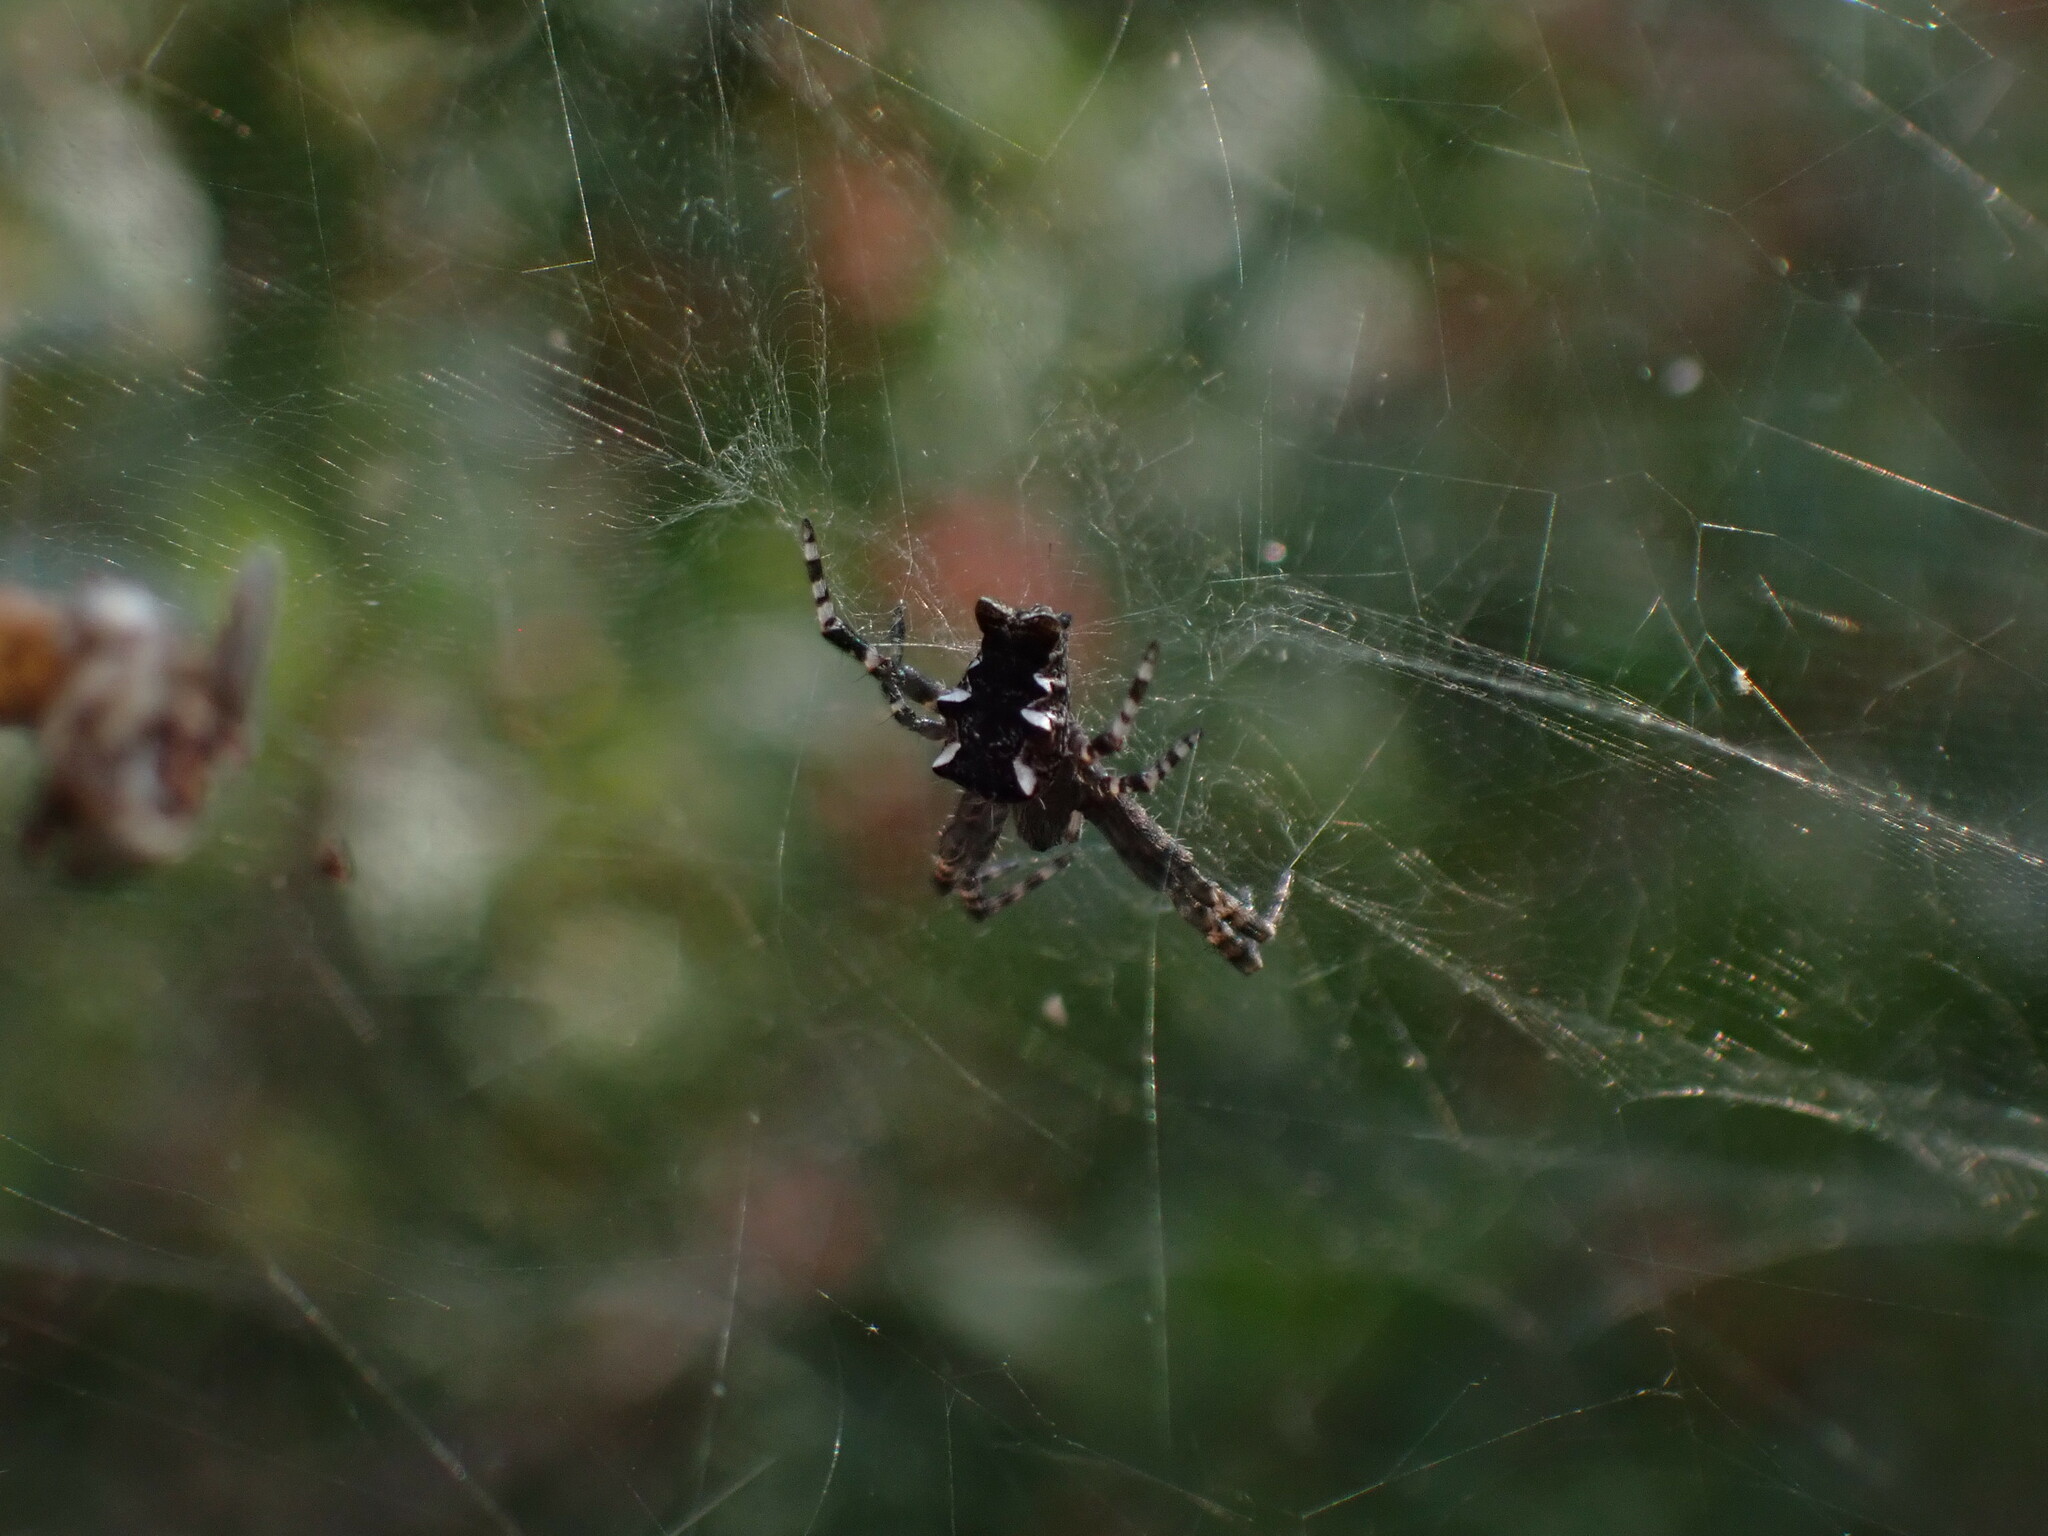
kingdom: Animalia
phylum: Arthropoda
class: Arachnida
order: Araneae
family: Araneidae
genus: Cyrtophora
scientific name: Cyrtophora citricola
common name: Orb weavers
